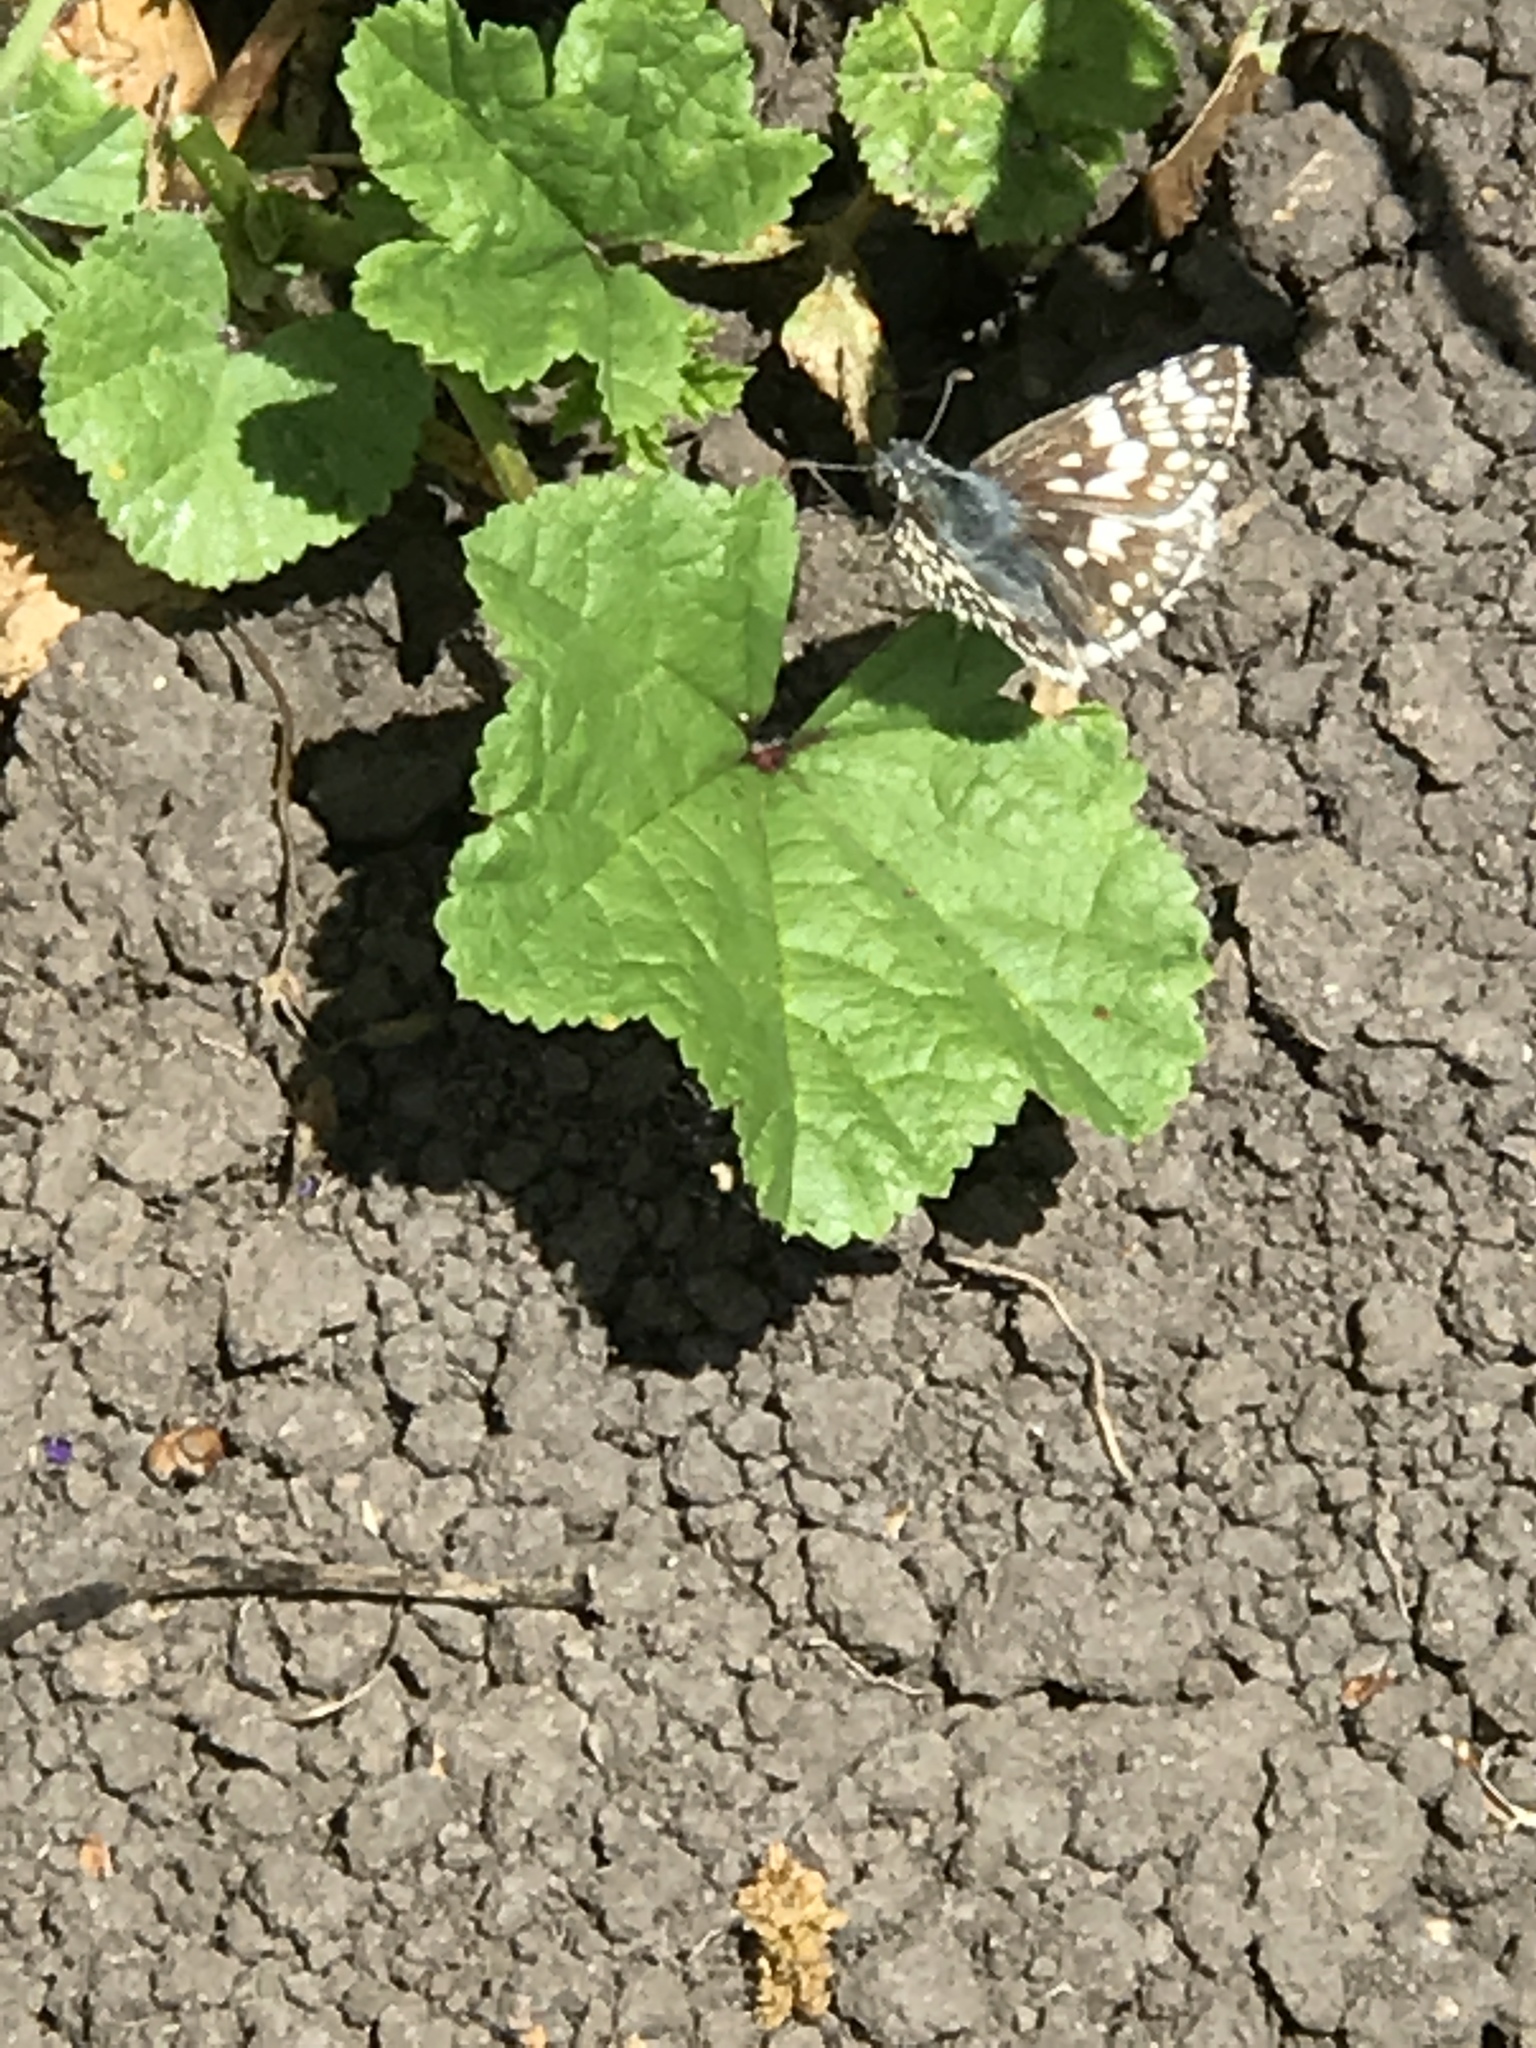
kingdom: Animalia
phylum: Arthropoda
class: Insecta
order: Lepidoptera
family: Hesperiidae
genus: Burnsius
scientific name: Burnsius communis
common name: Common checkered-skipper
